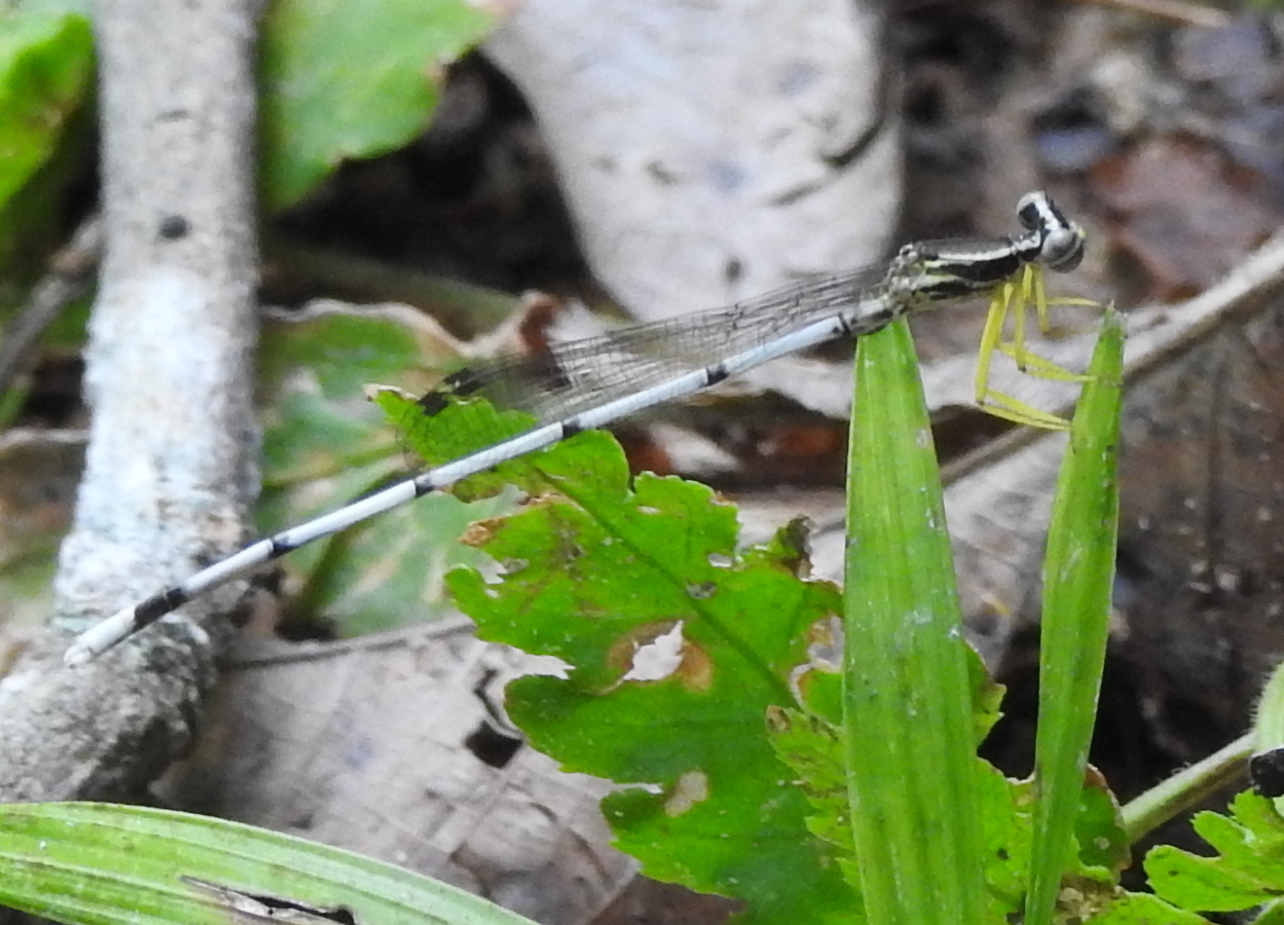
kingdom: Animalia
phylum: Arthropoda
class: Insecta
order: Odonata
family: Platycnemididae
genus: Copera
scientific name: Copera marginipes
